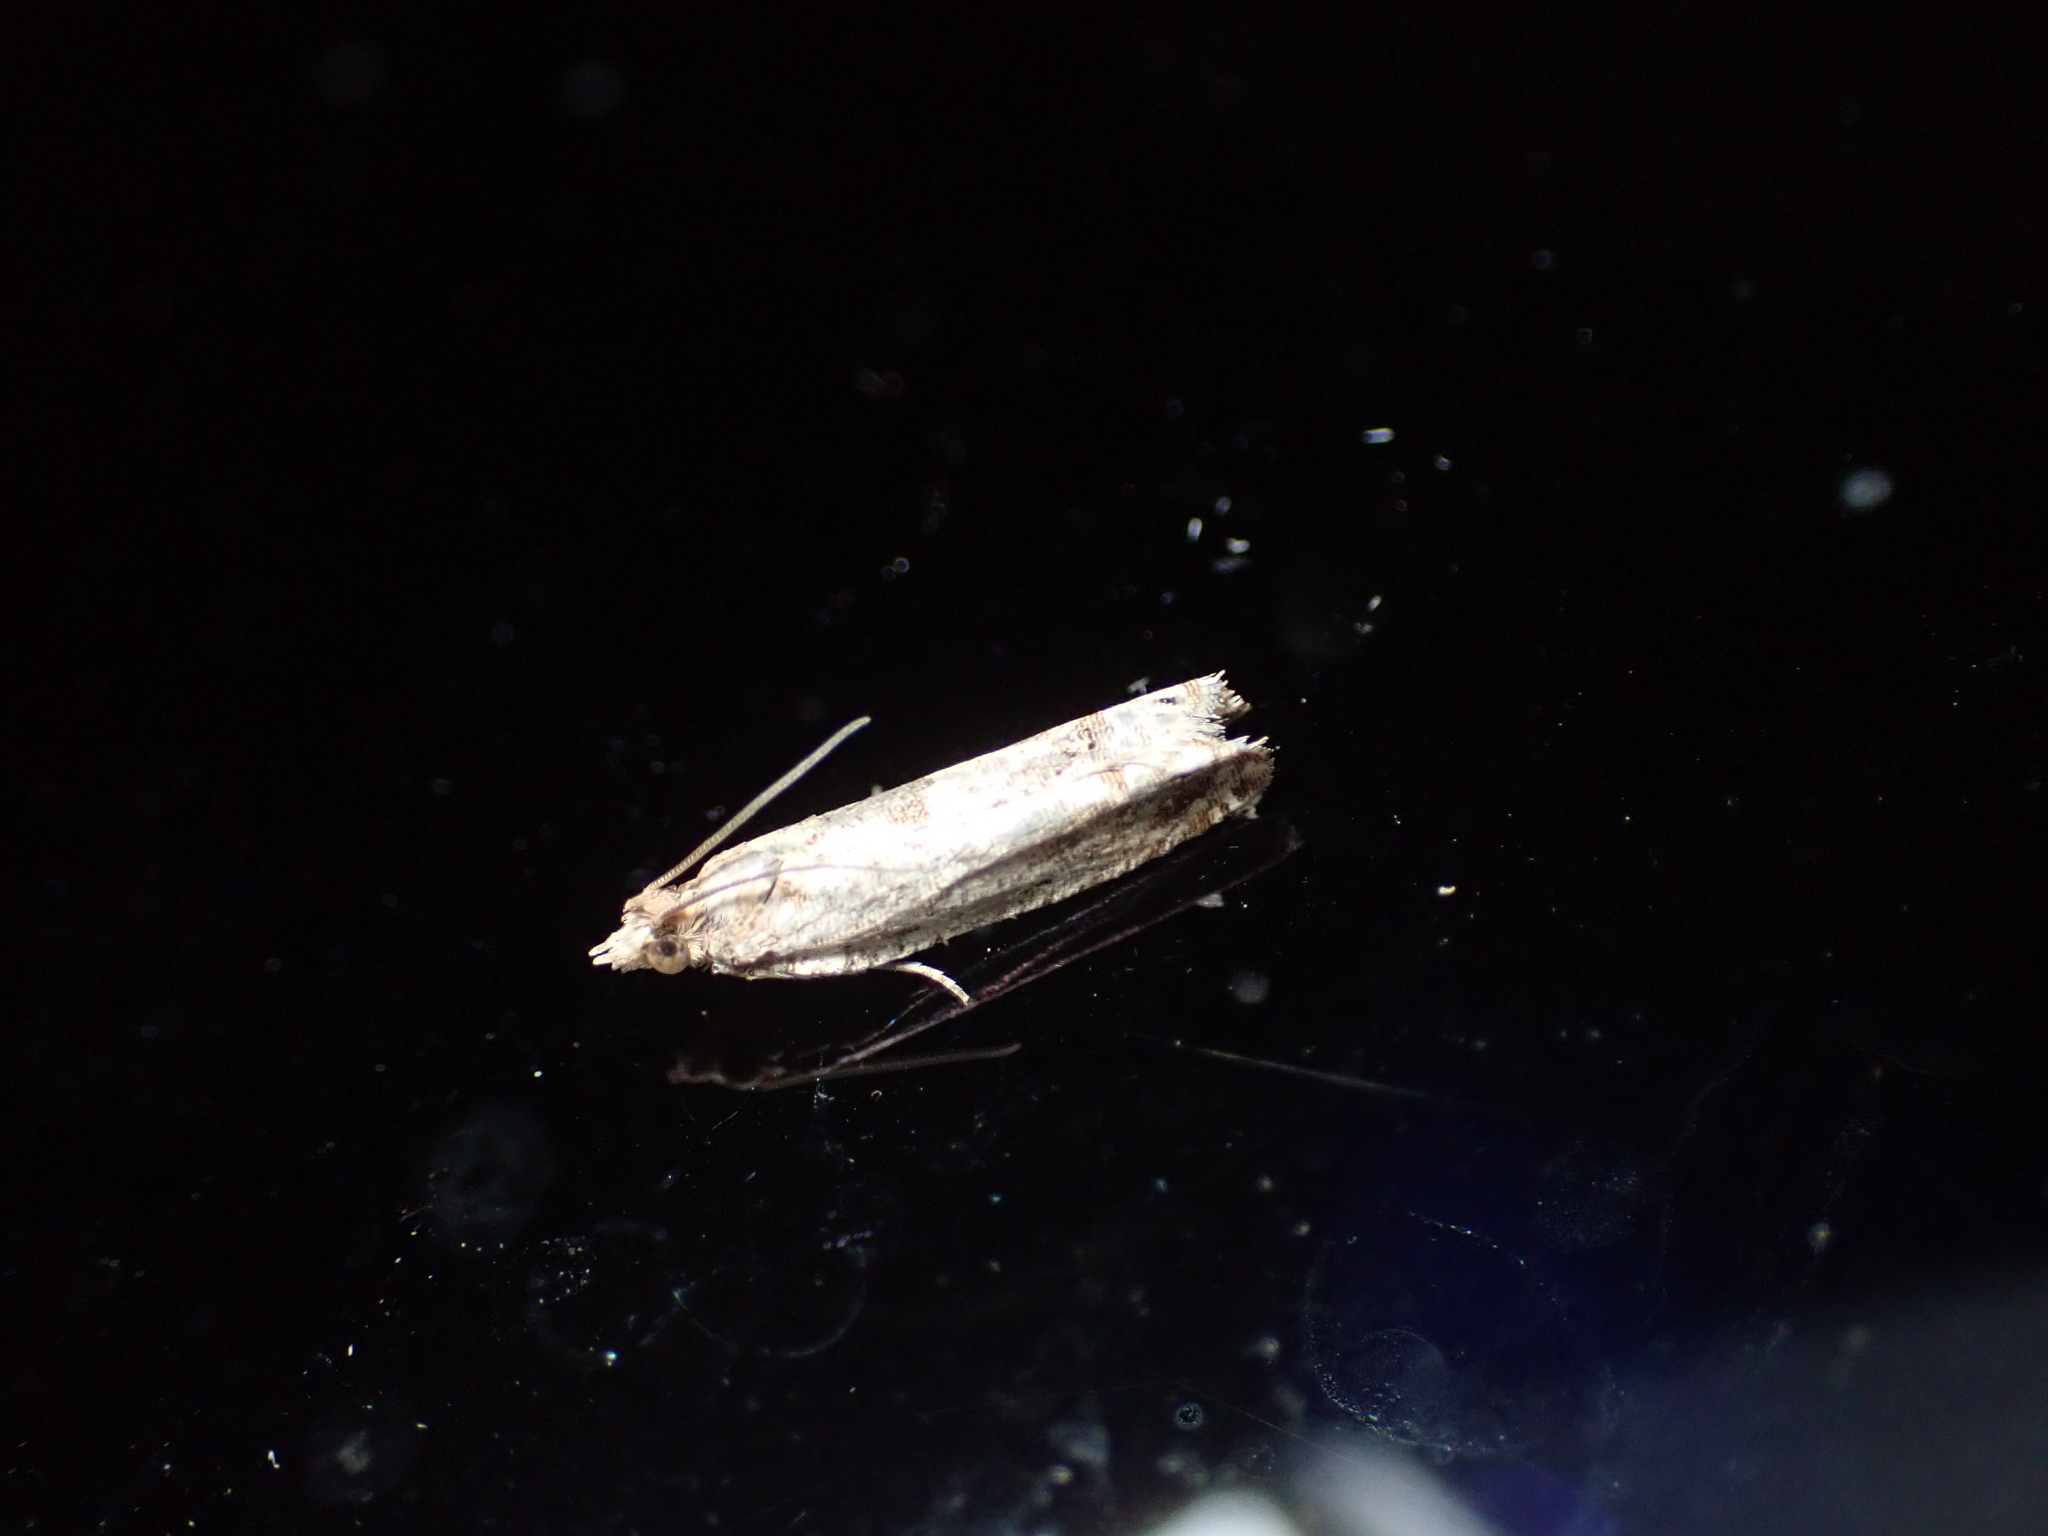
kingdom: Animalia
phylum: Arthropoda
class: Insecta
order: Lepidoptera
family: Tortricidae
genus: Crocidosema
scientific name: Crocidosema plebejana
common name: Southern bell
